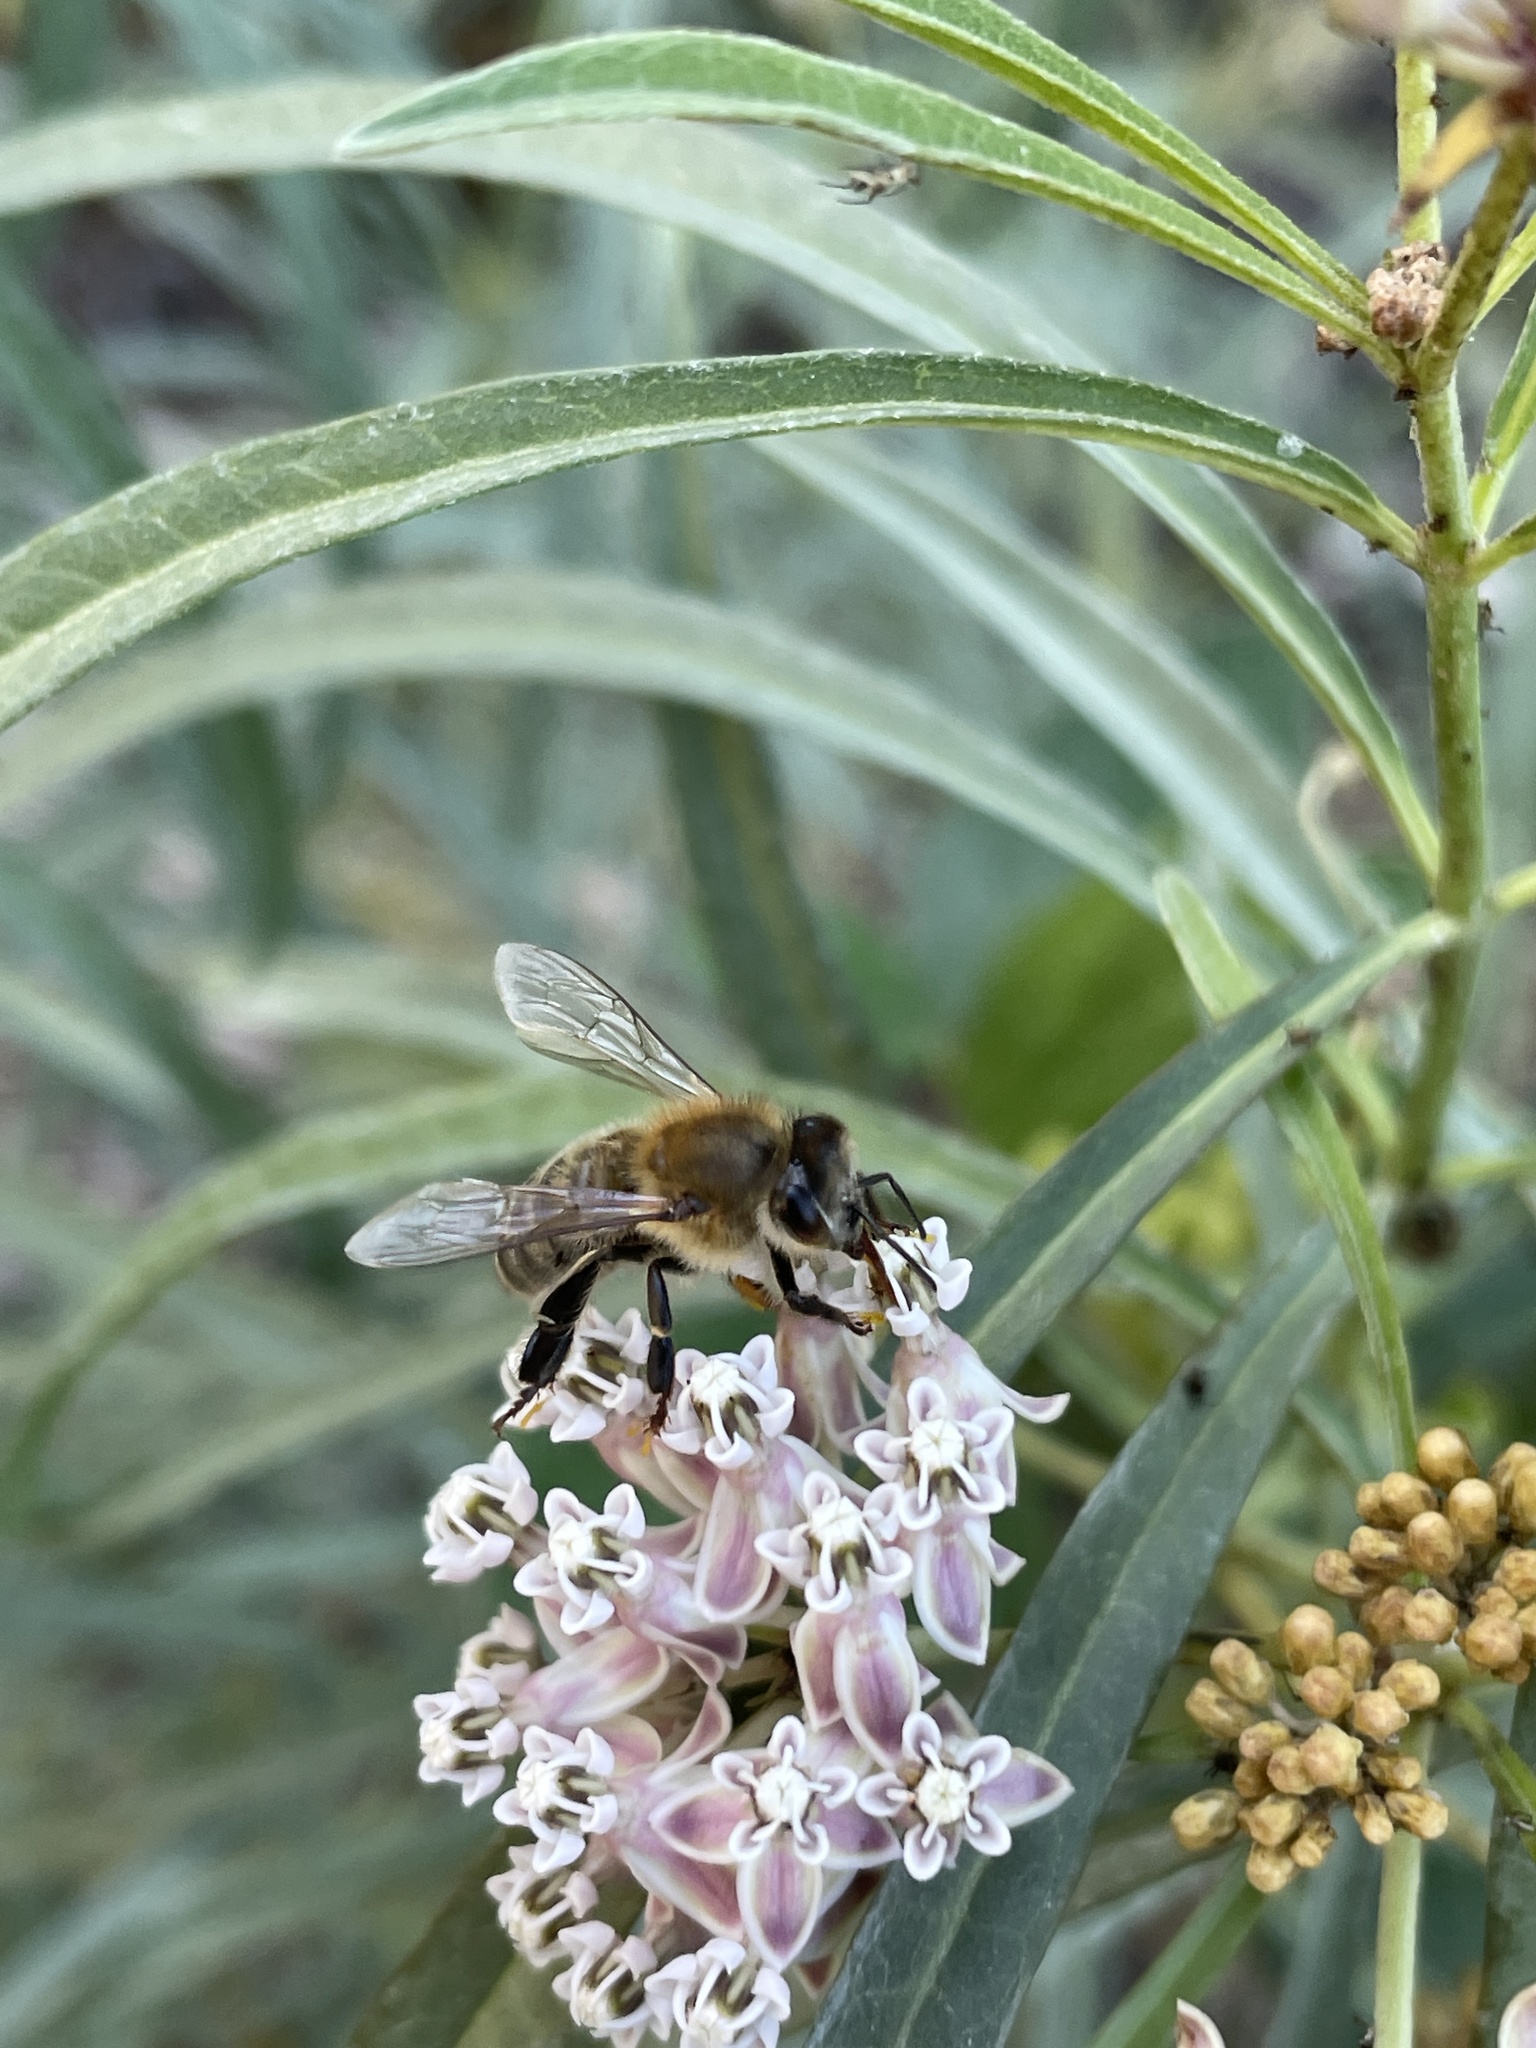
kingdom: Animalia
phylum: Arthropoda
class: Insecta
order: Hymenoptera
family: Apidae
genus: Apis
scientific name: Apis mellifera
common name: Honey bee
